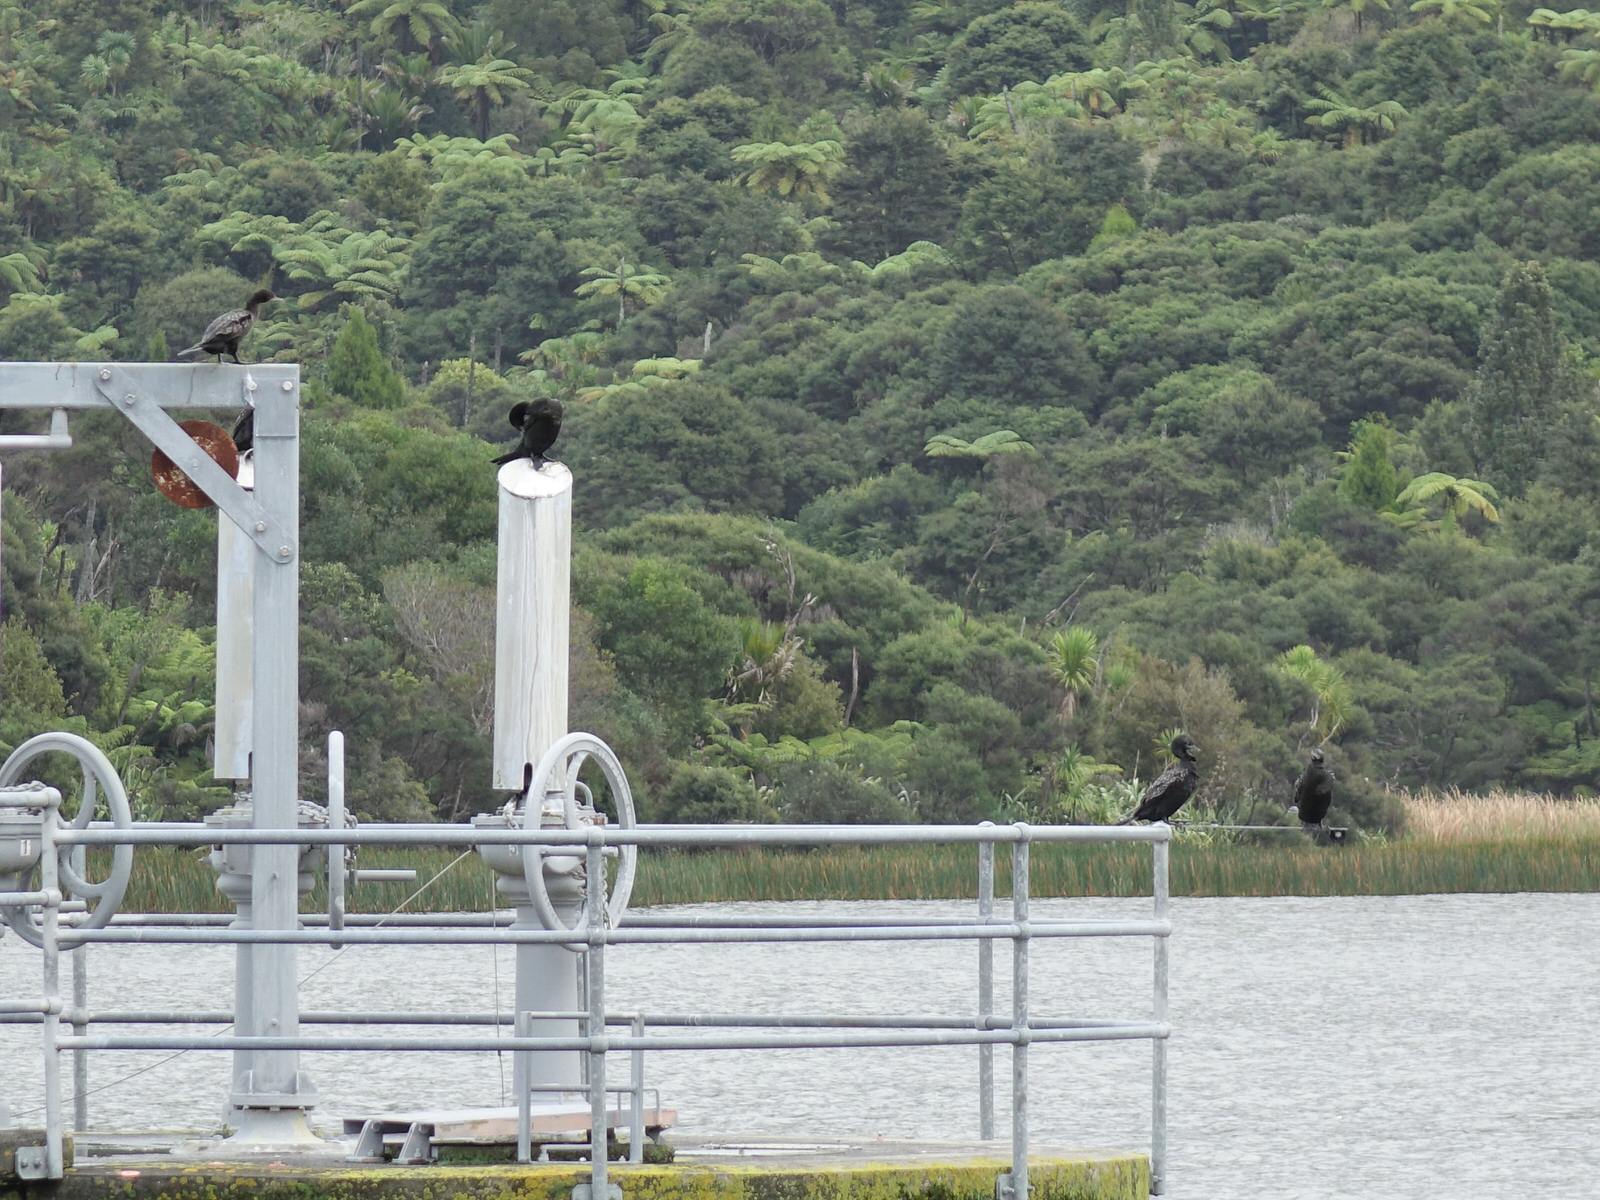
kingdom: Animalia
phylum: Chordata
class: Aves
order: Suliformes
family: Phalacrocoracidae
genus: Phalacrocorax
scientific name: Phalacrocorax sulcirostris
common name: Little black cormorant
